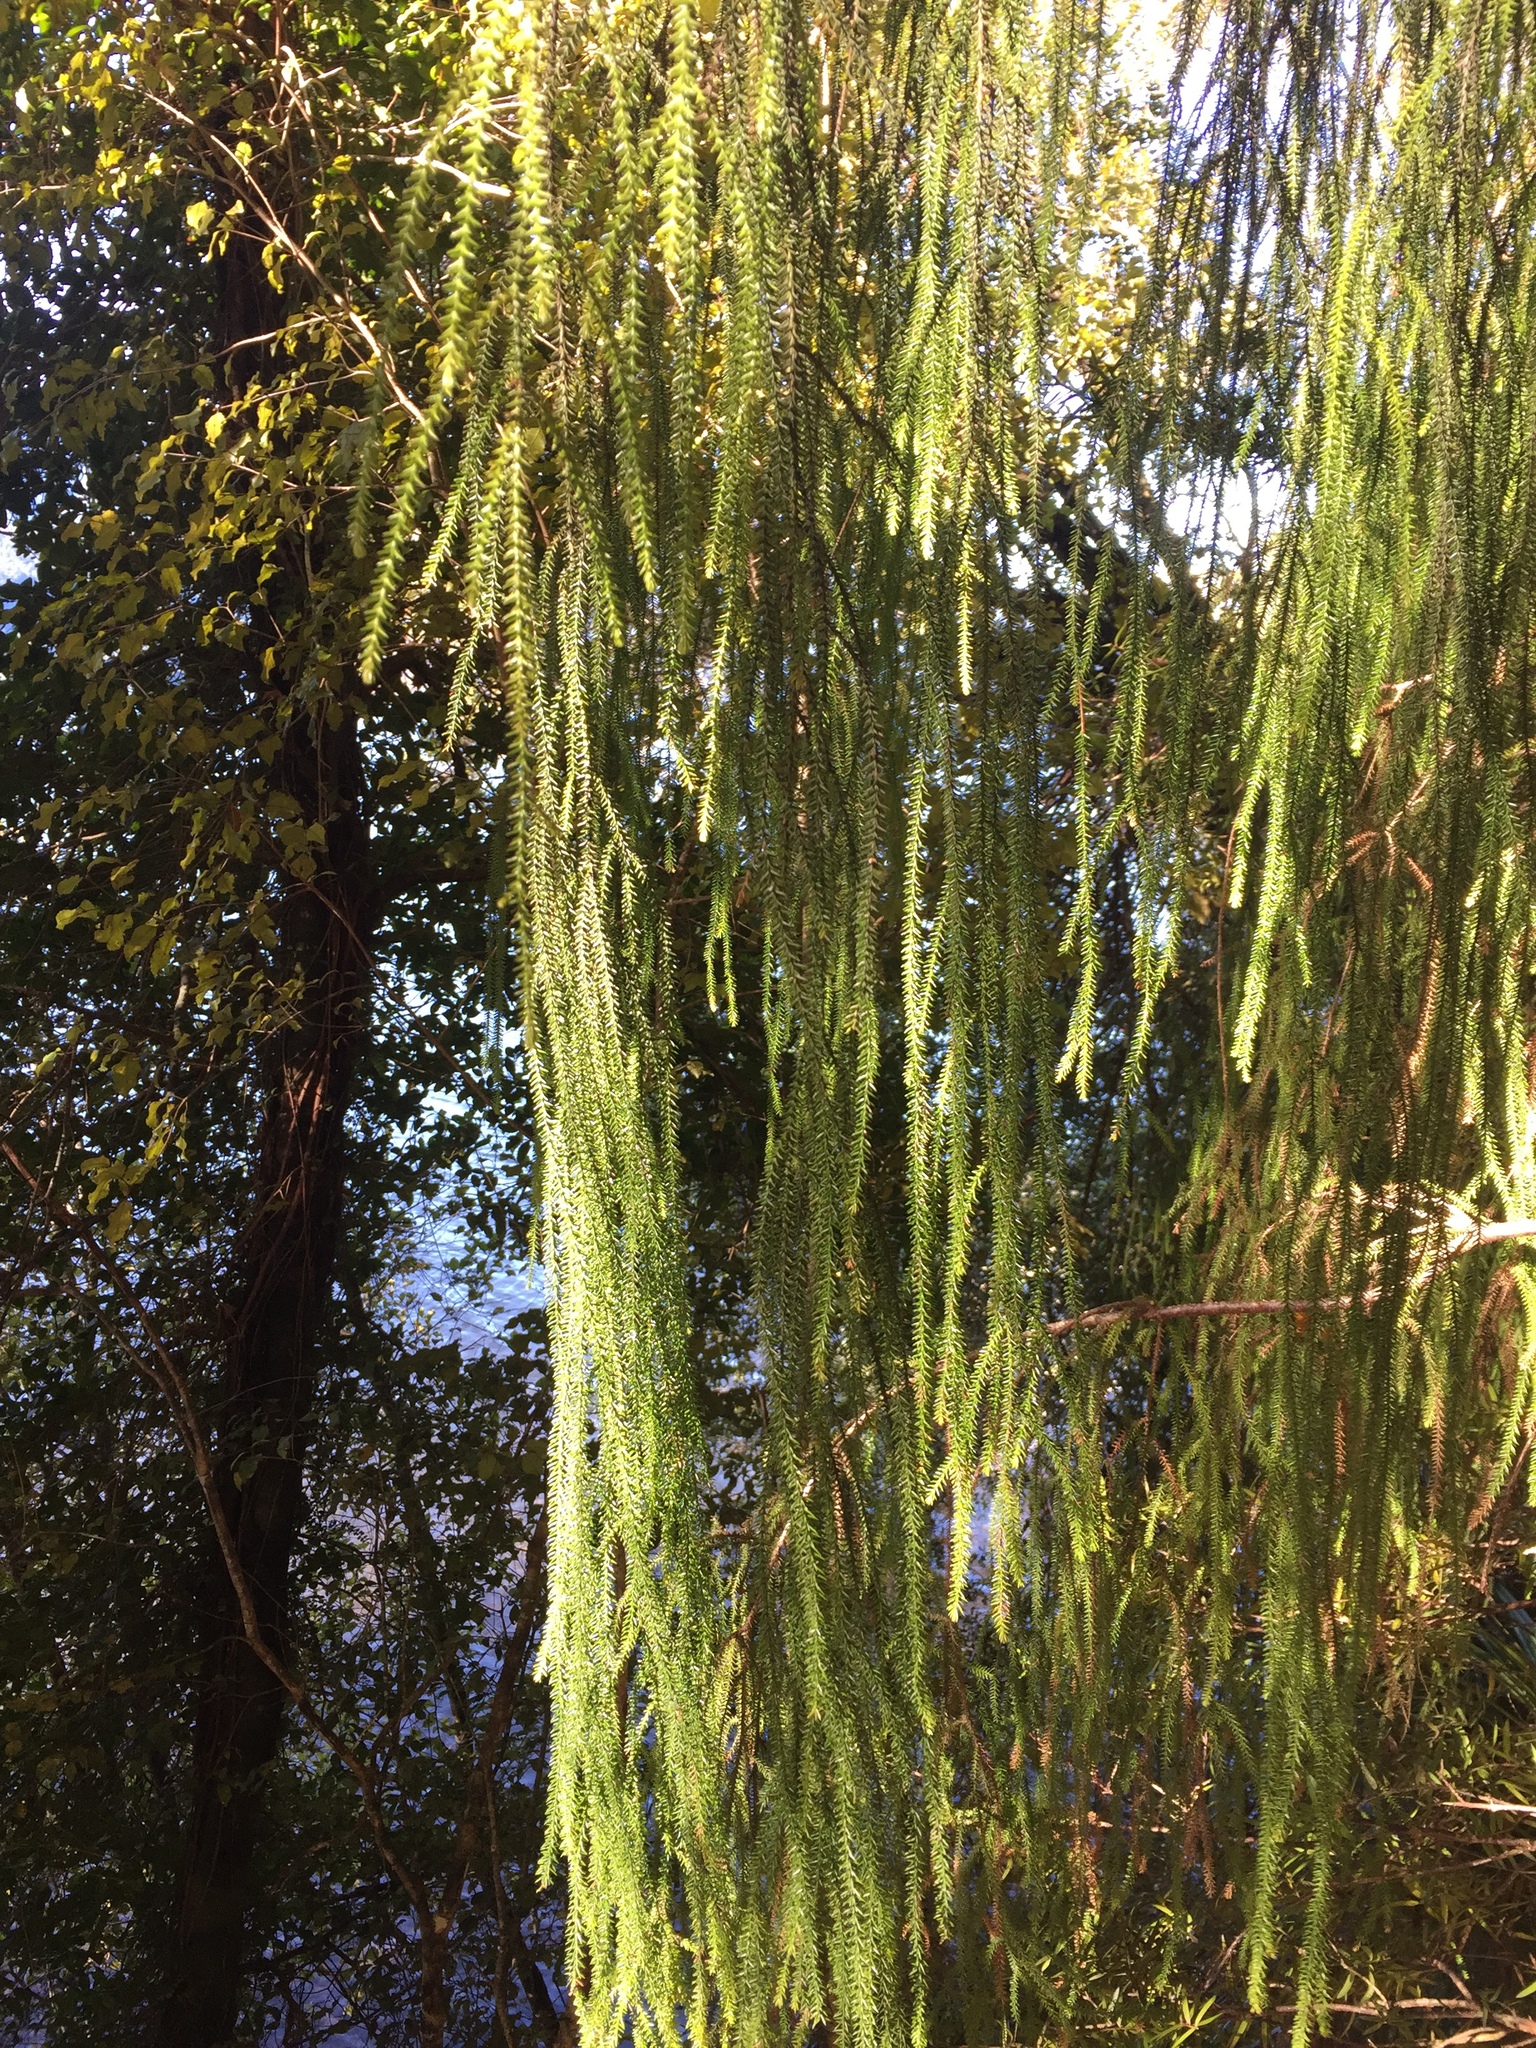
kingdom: Plantae
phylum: Tracheophyta
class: Pinopsida
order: Pinales
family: Podocarpaceae
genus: Dacrydium
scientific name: Dacrydium cupressinum
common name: Red pine
